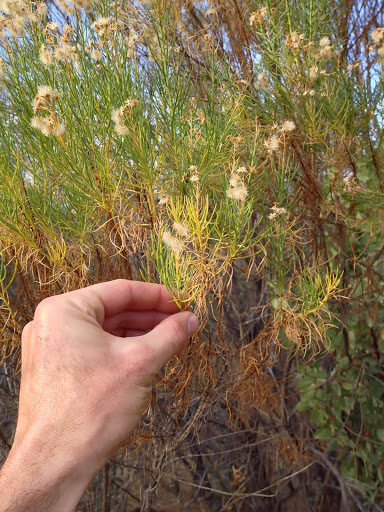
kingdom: Plantae
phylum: Tracheophyta
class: Magnoliopsida
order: Asterales
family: Asteraceae
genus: Ericameria
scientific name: Ericameria arborescens
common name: Goldenfleece
